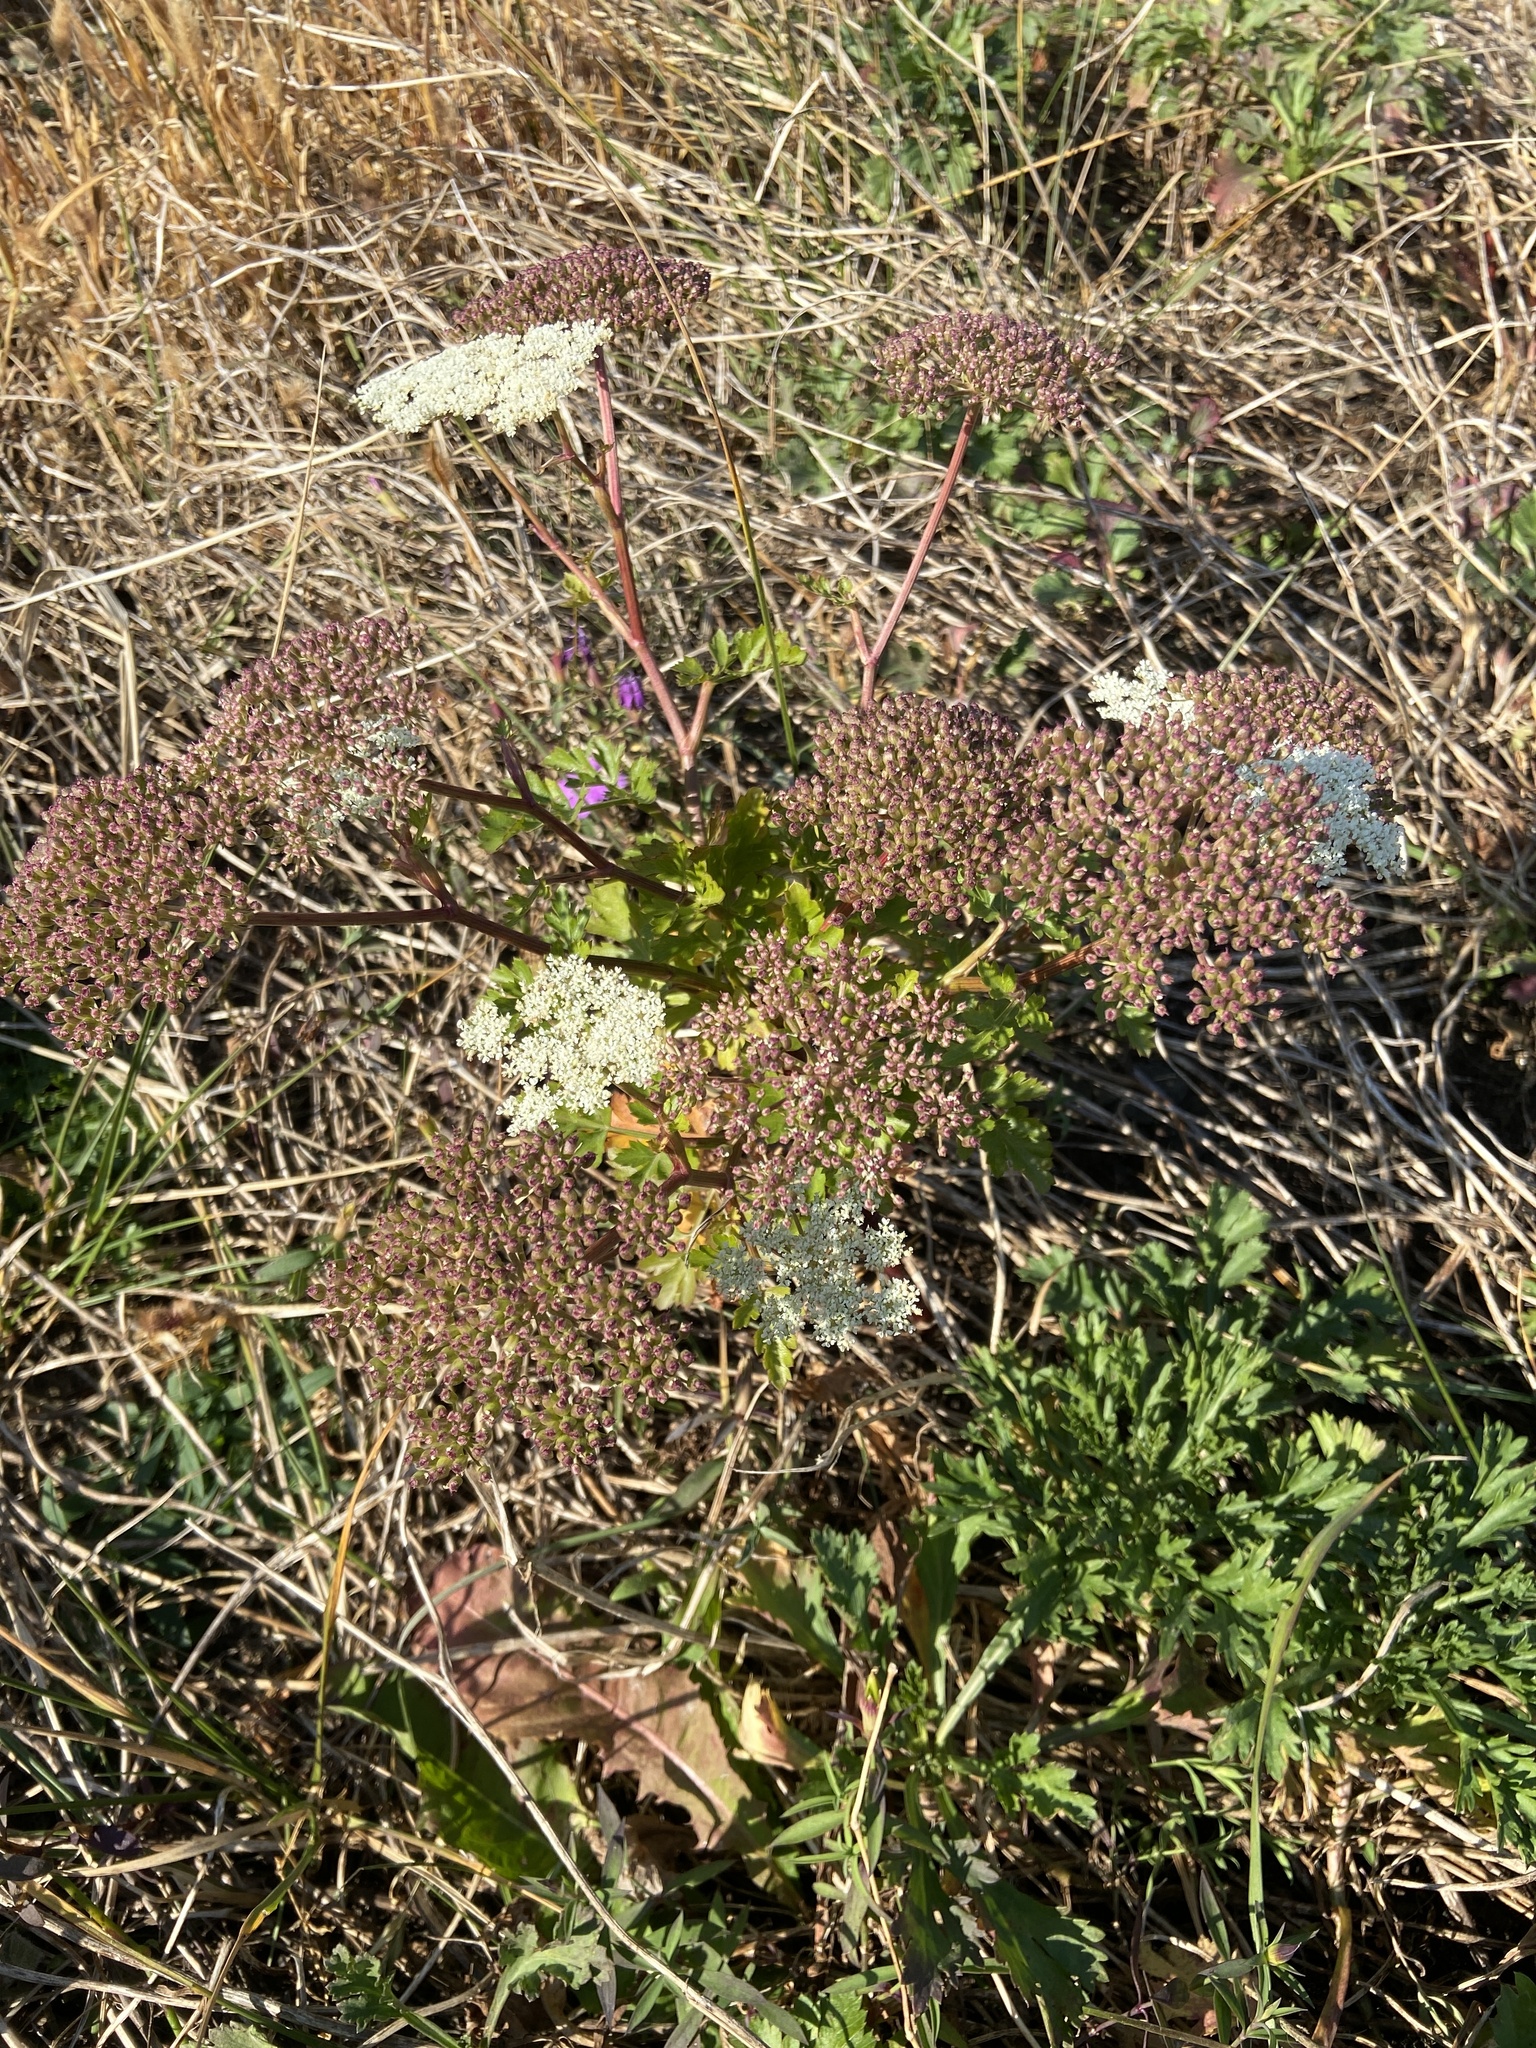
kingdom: Plantae
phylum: Tracheophyta
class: Magnoliopsida
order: Apiales
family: Apiaceae
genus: Kitagawia
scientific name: Kitagawia terebinthacea
